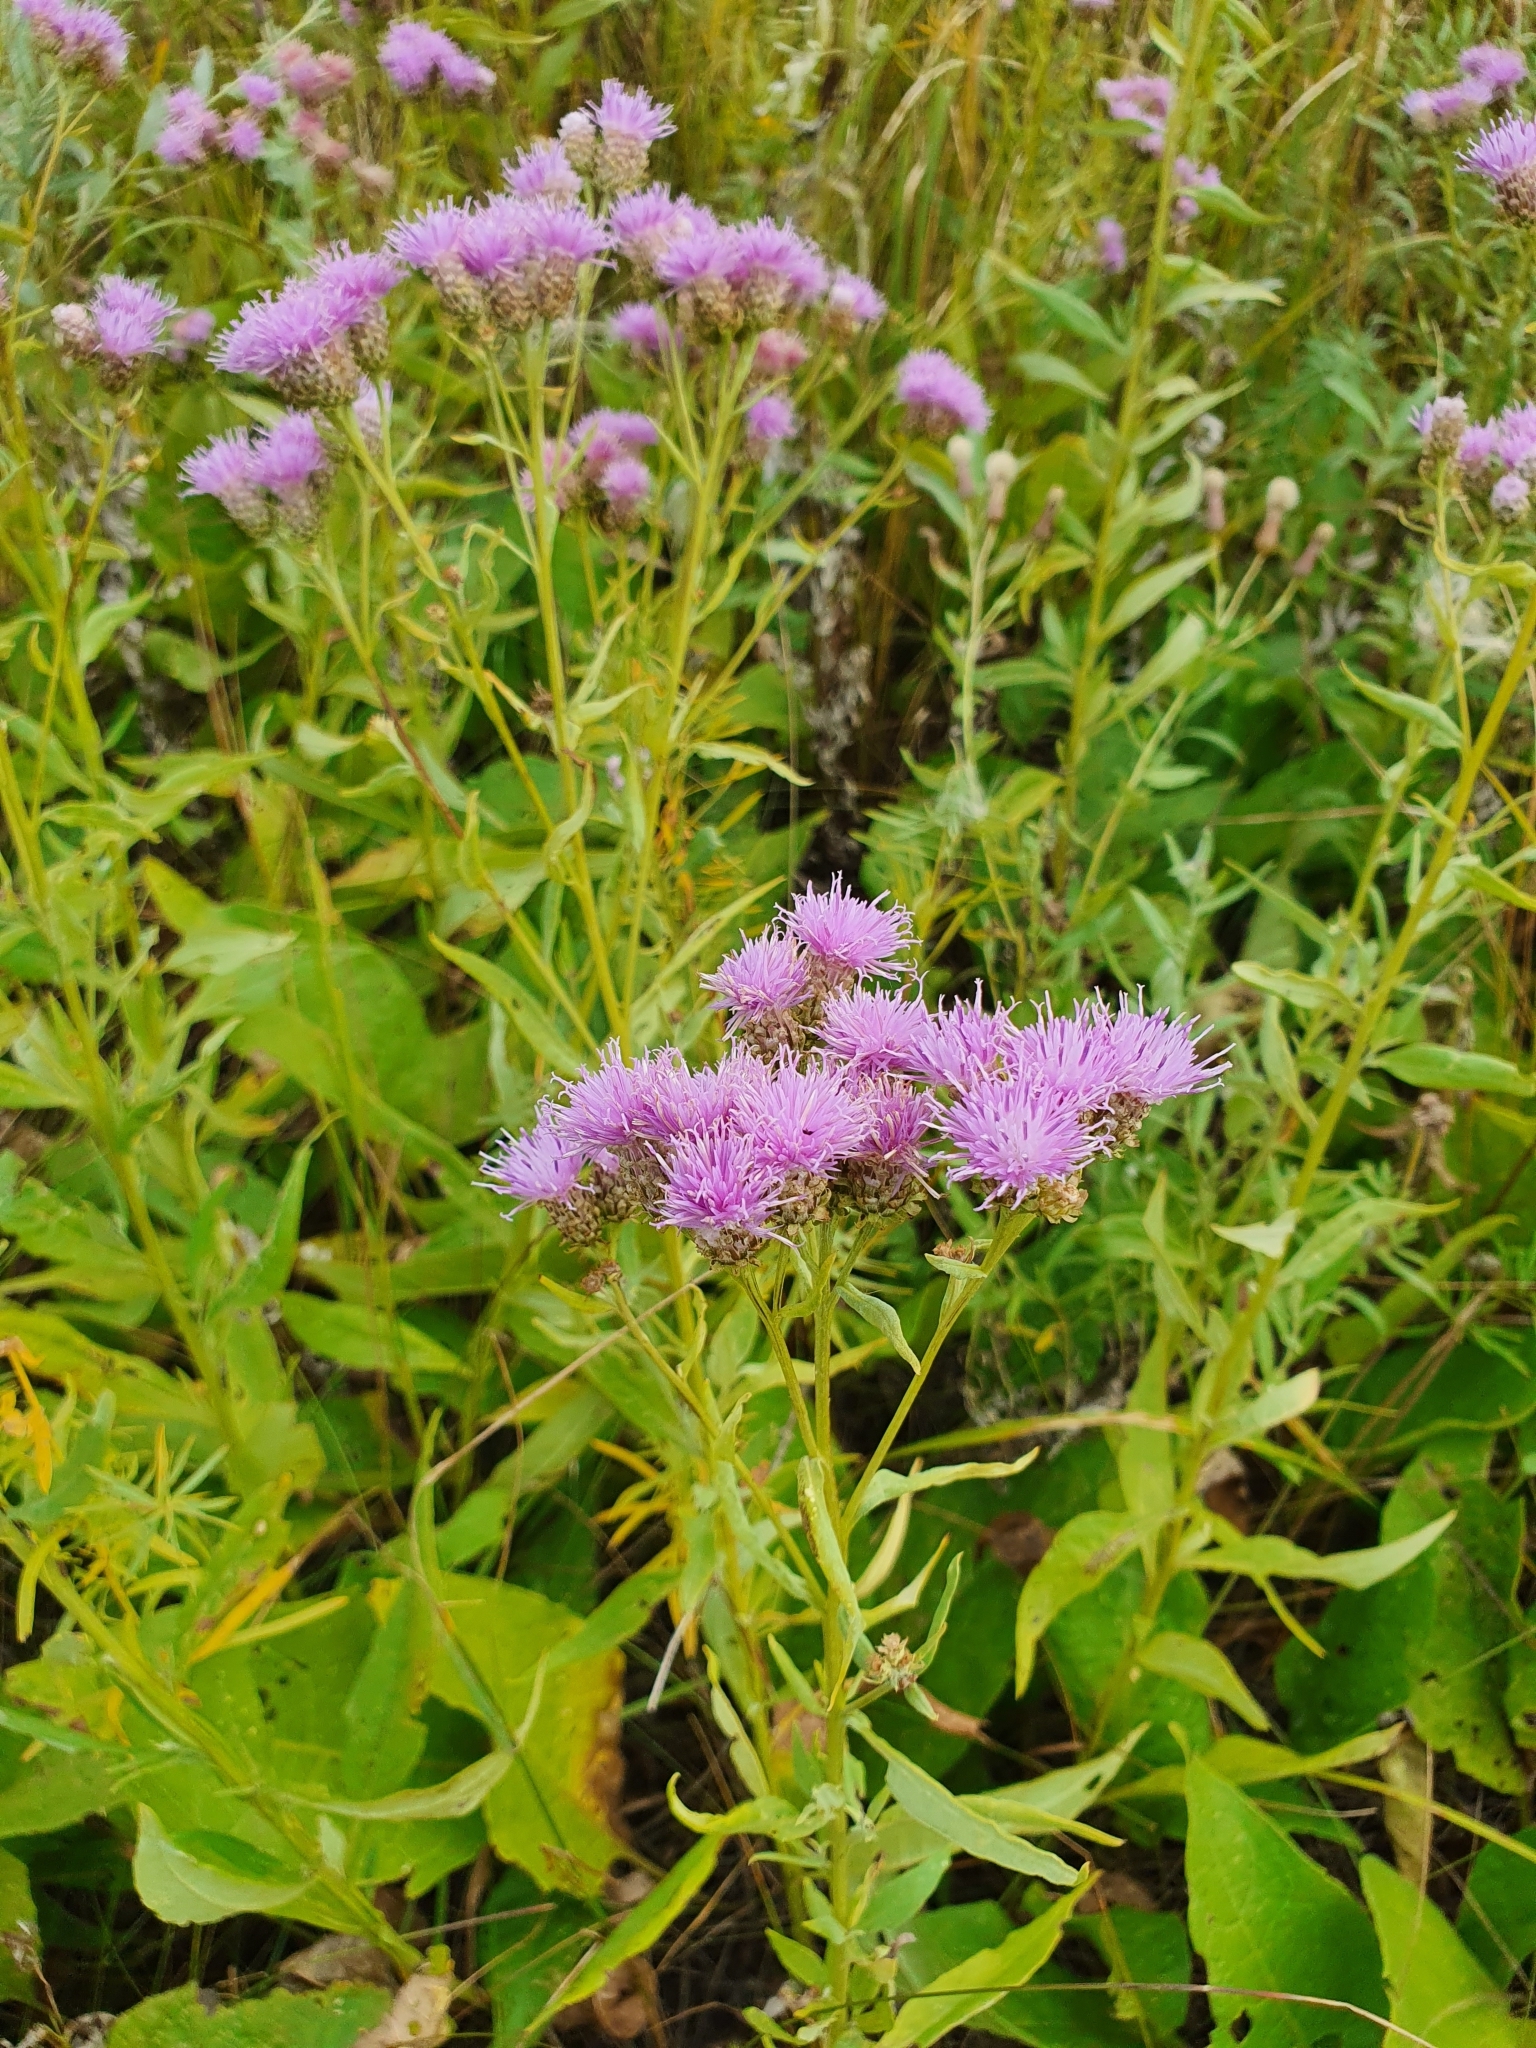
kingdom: Plantae
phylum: Tracheophyta
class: Magnoliopsida
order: Asterales
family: Asteraceae
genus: Saussurea
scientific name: Saussurea amara
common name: Alberta sawwort
